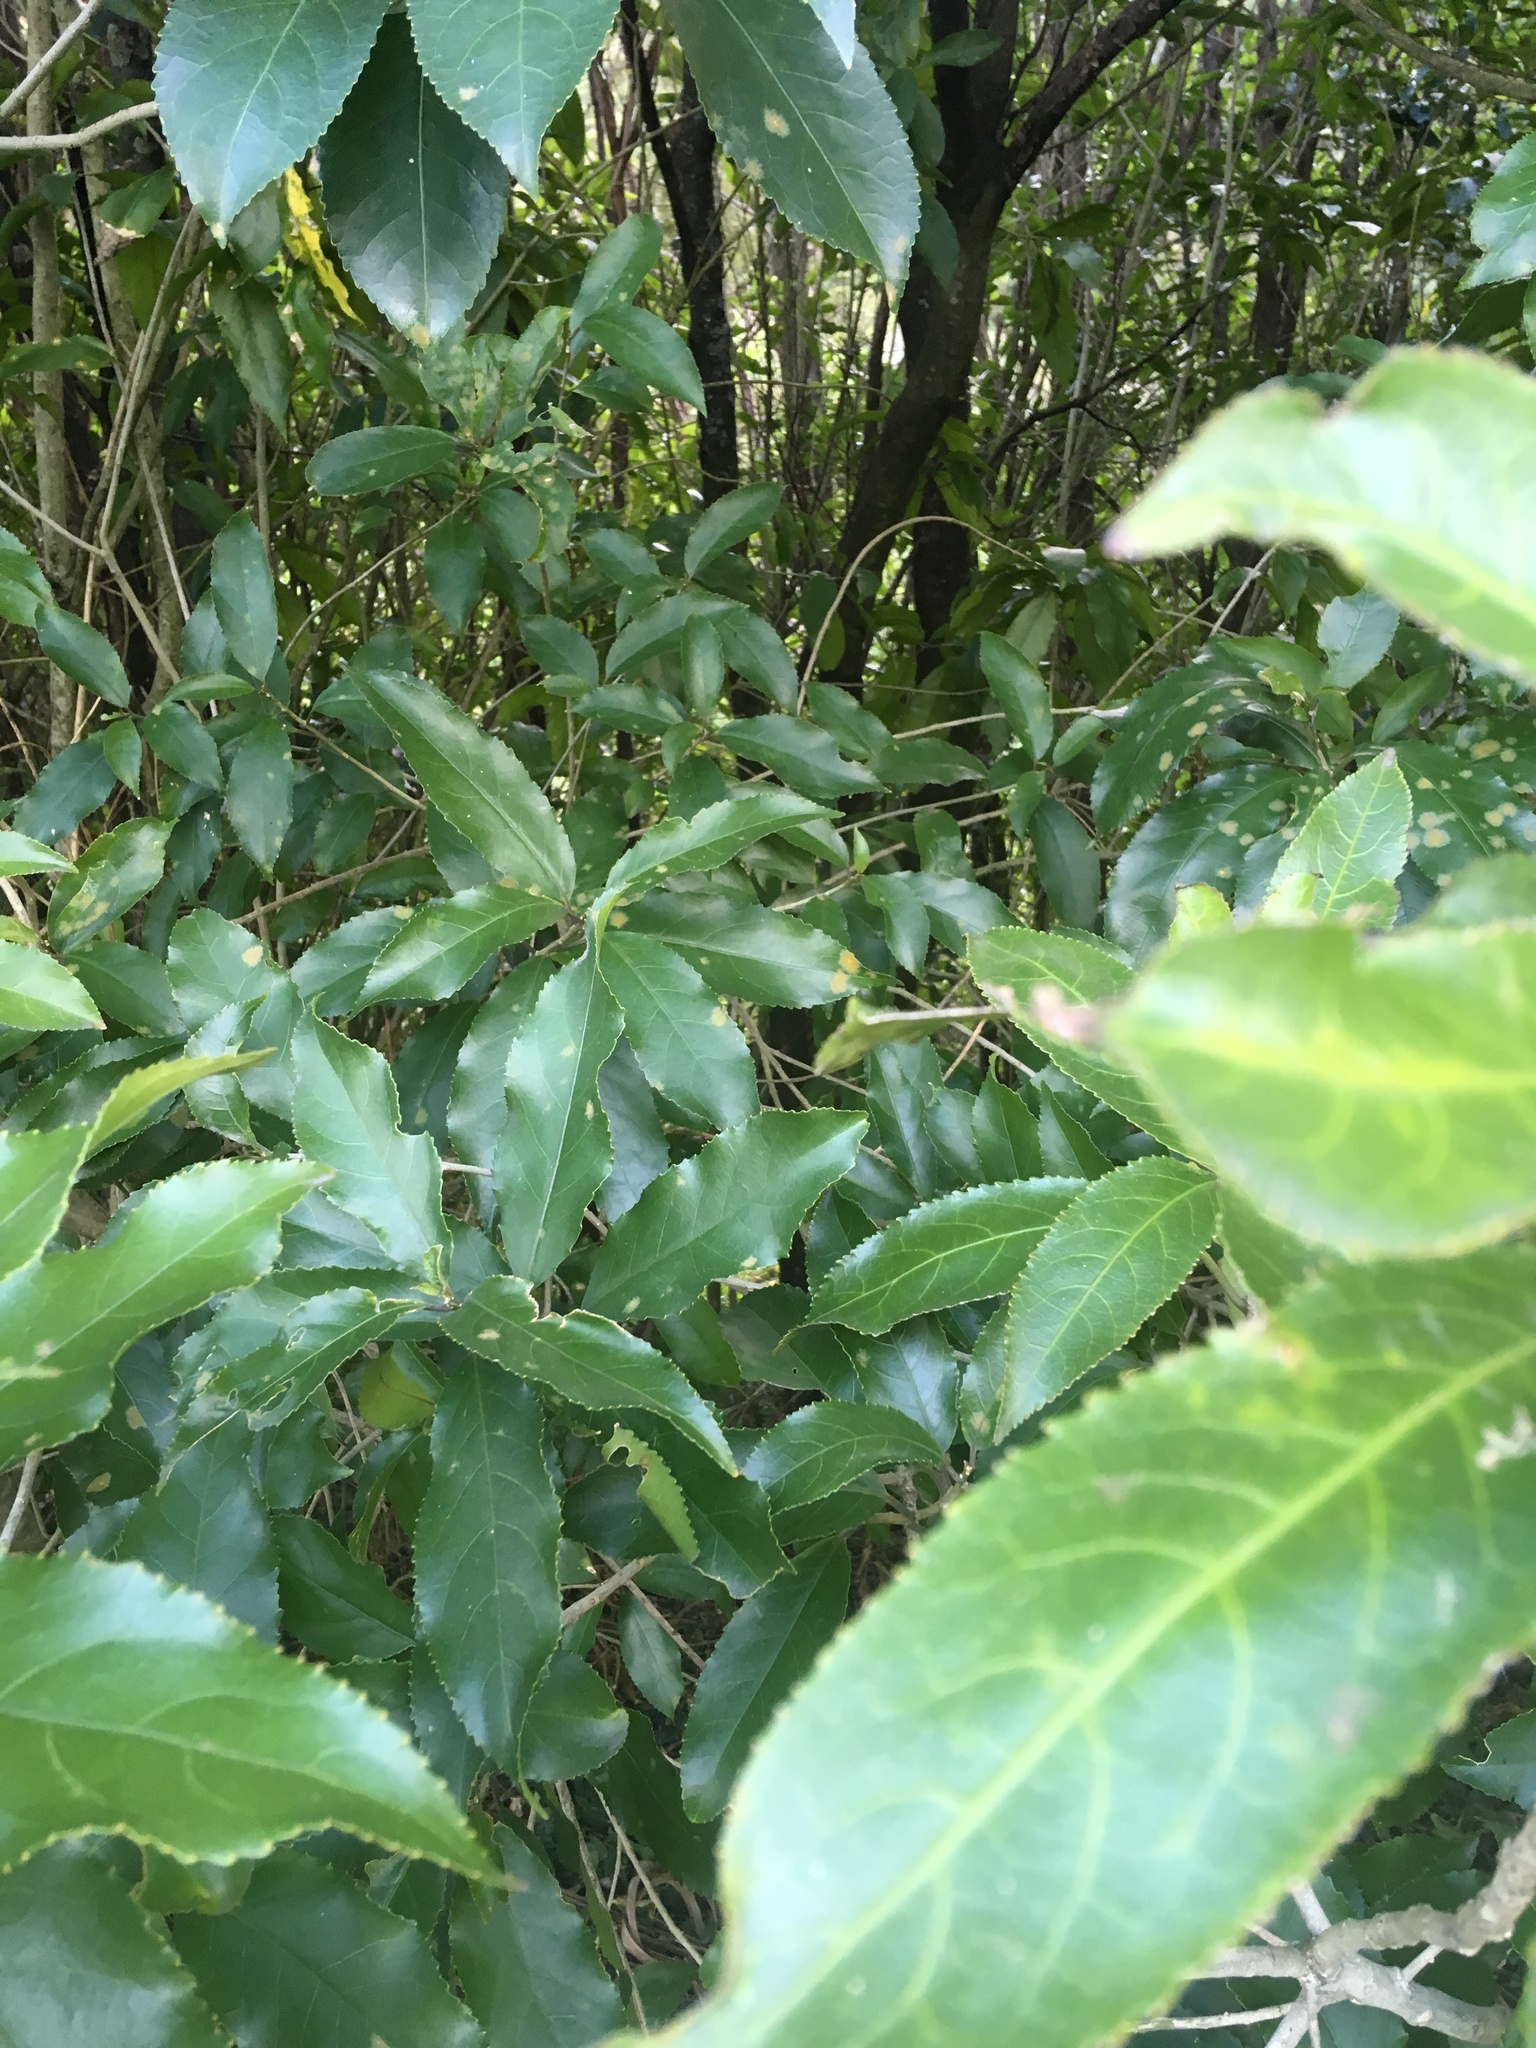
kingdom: Plantae
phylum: Tracheophyta
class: Magnoliopsida
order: Malpighiales
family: Violaceae
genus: Melicytus
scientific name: Melicytus ramiflorus
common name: Mahoe
